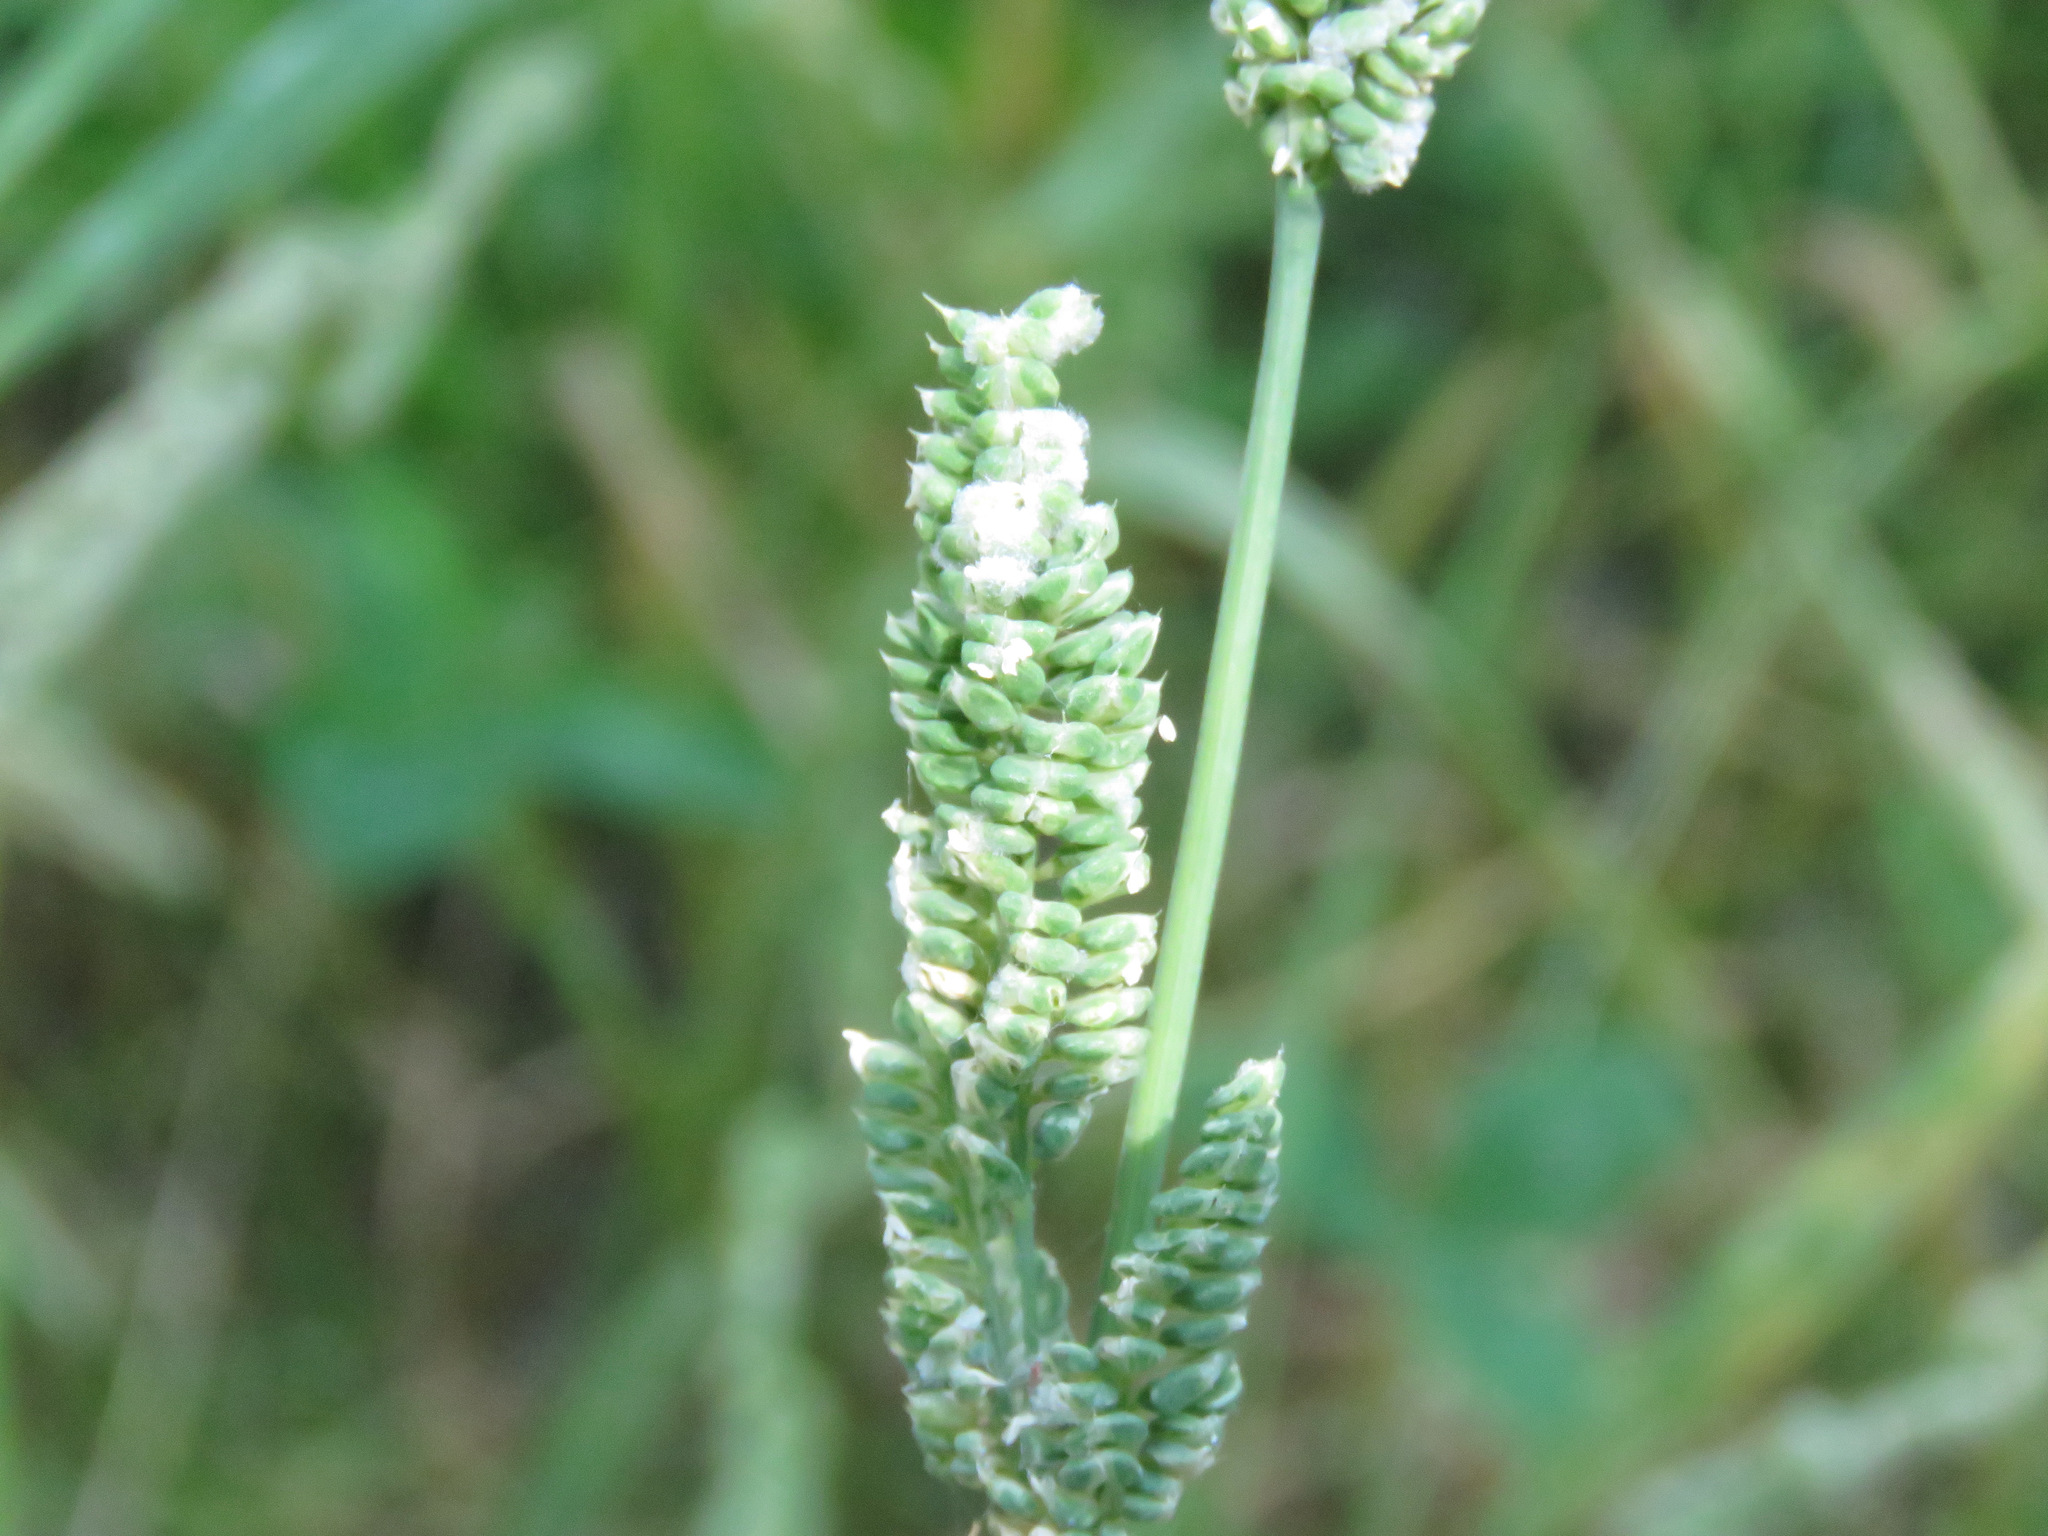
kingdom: Plantae
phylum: Tracheophyta
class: Liliopsida
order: Poales
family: Poaceae
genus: Beckmannia
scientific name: Beckmannia syzigachne
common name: American slough-grass
